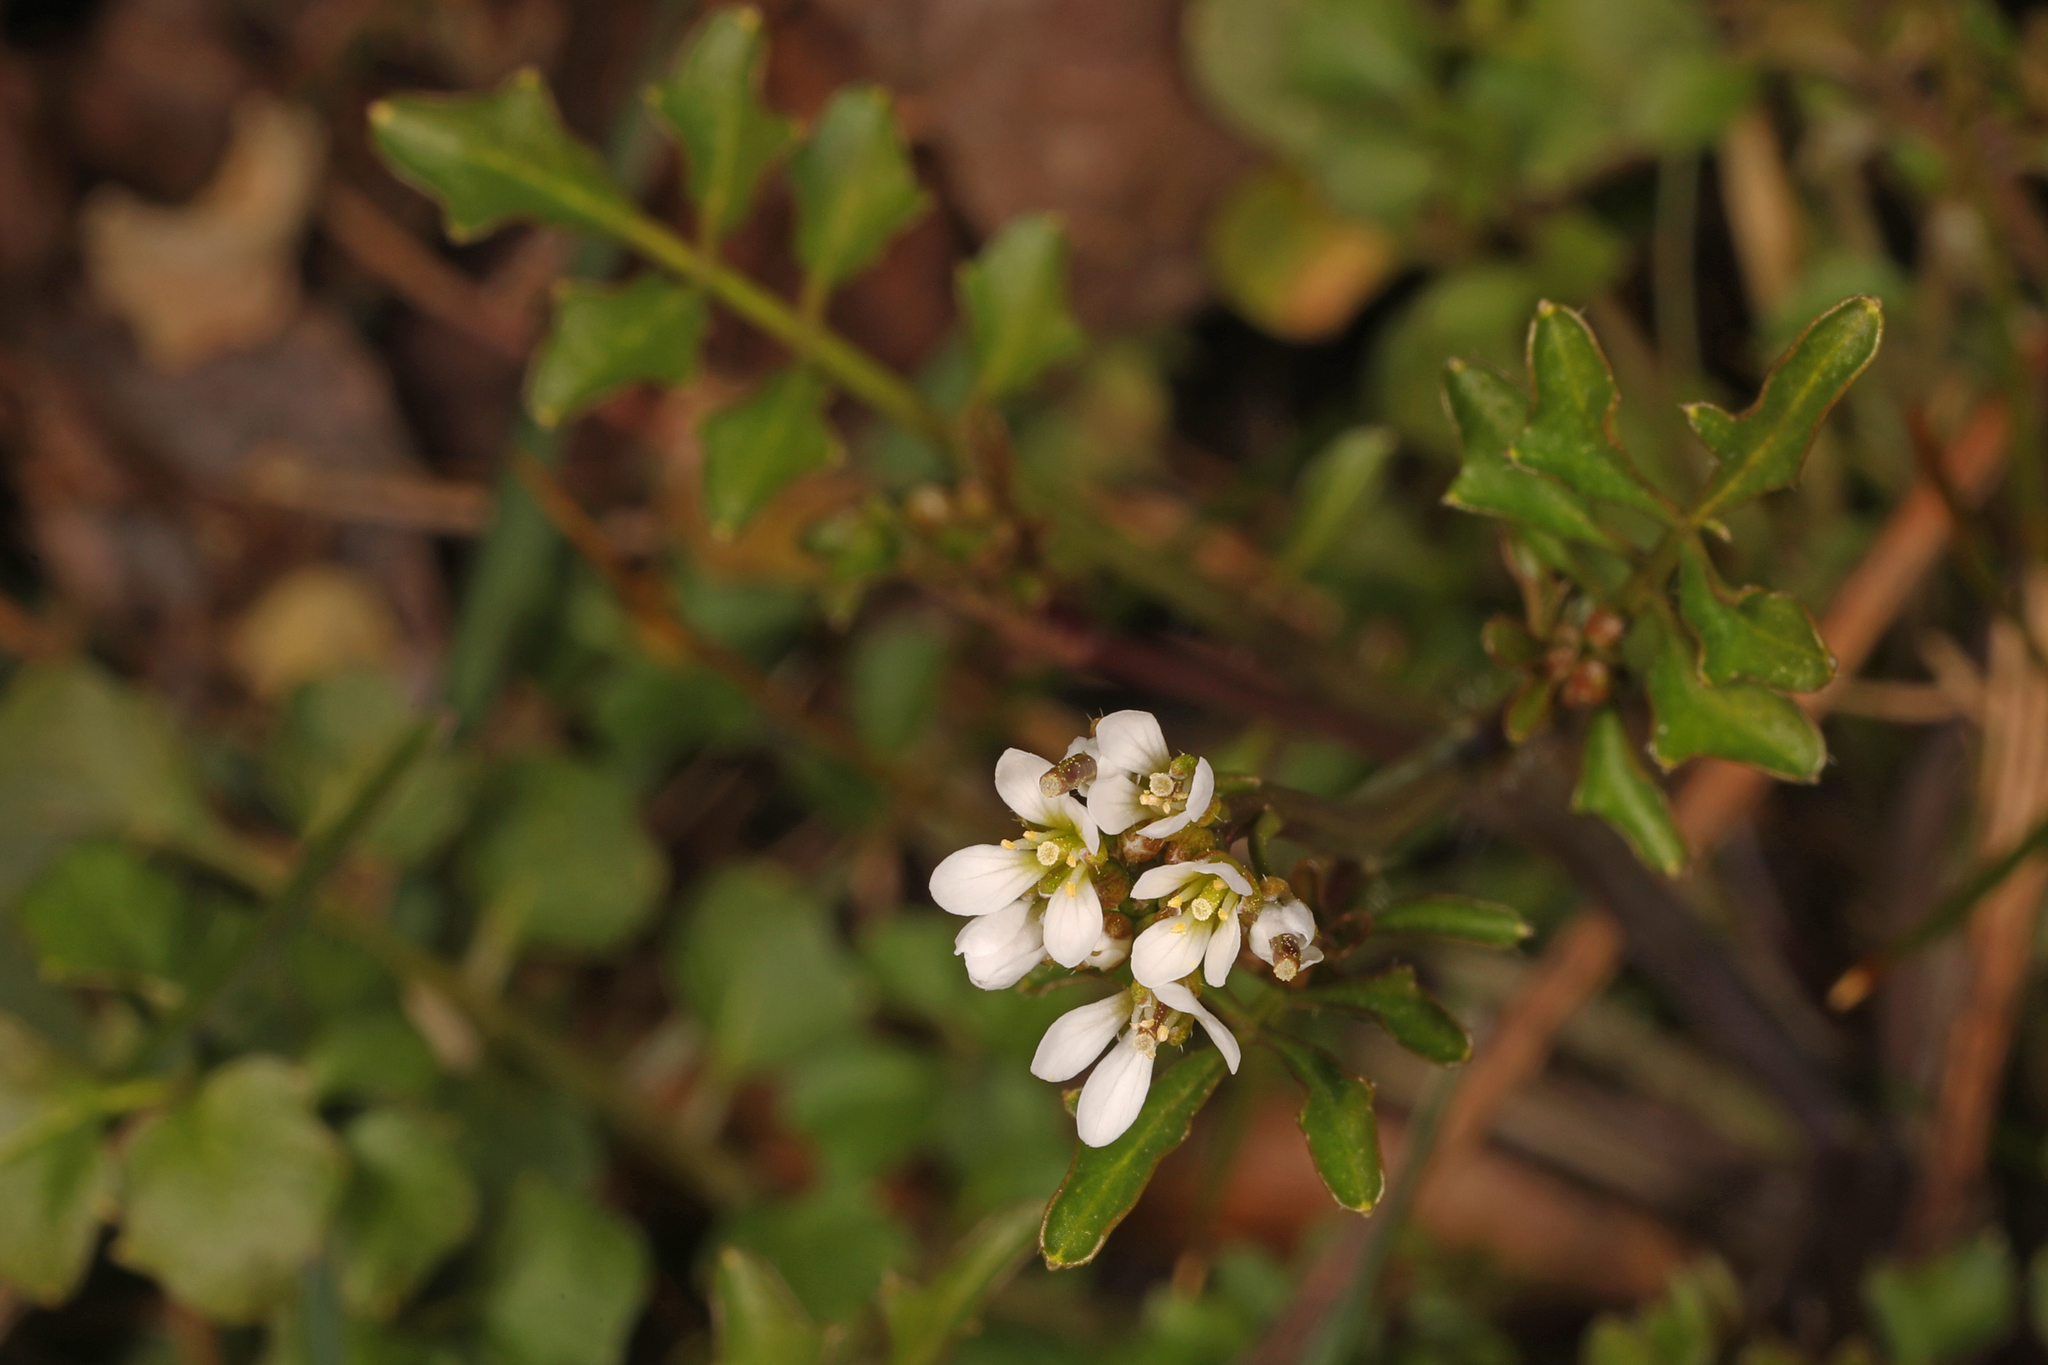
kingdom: Plantae
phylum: Tracheophyta
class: Magnoliopsida
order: Brassicales
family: Brassicaceae
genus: Cardamine
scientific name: Cardamine hirsuta
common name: Hairy bittercress
